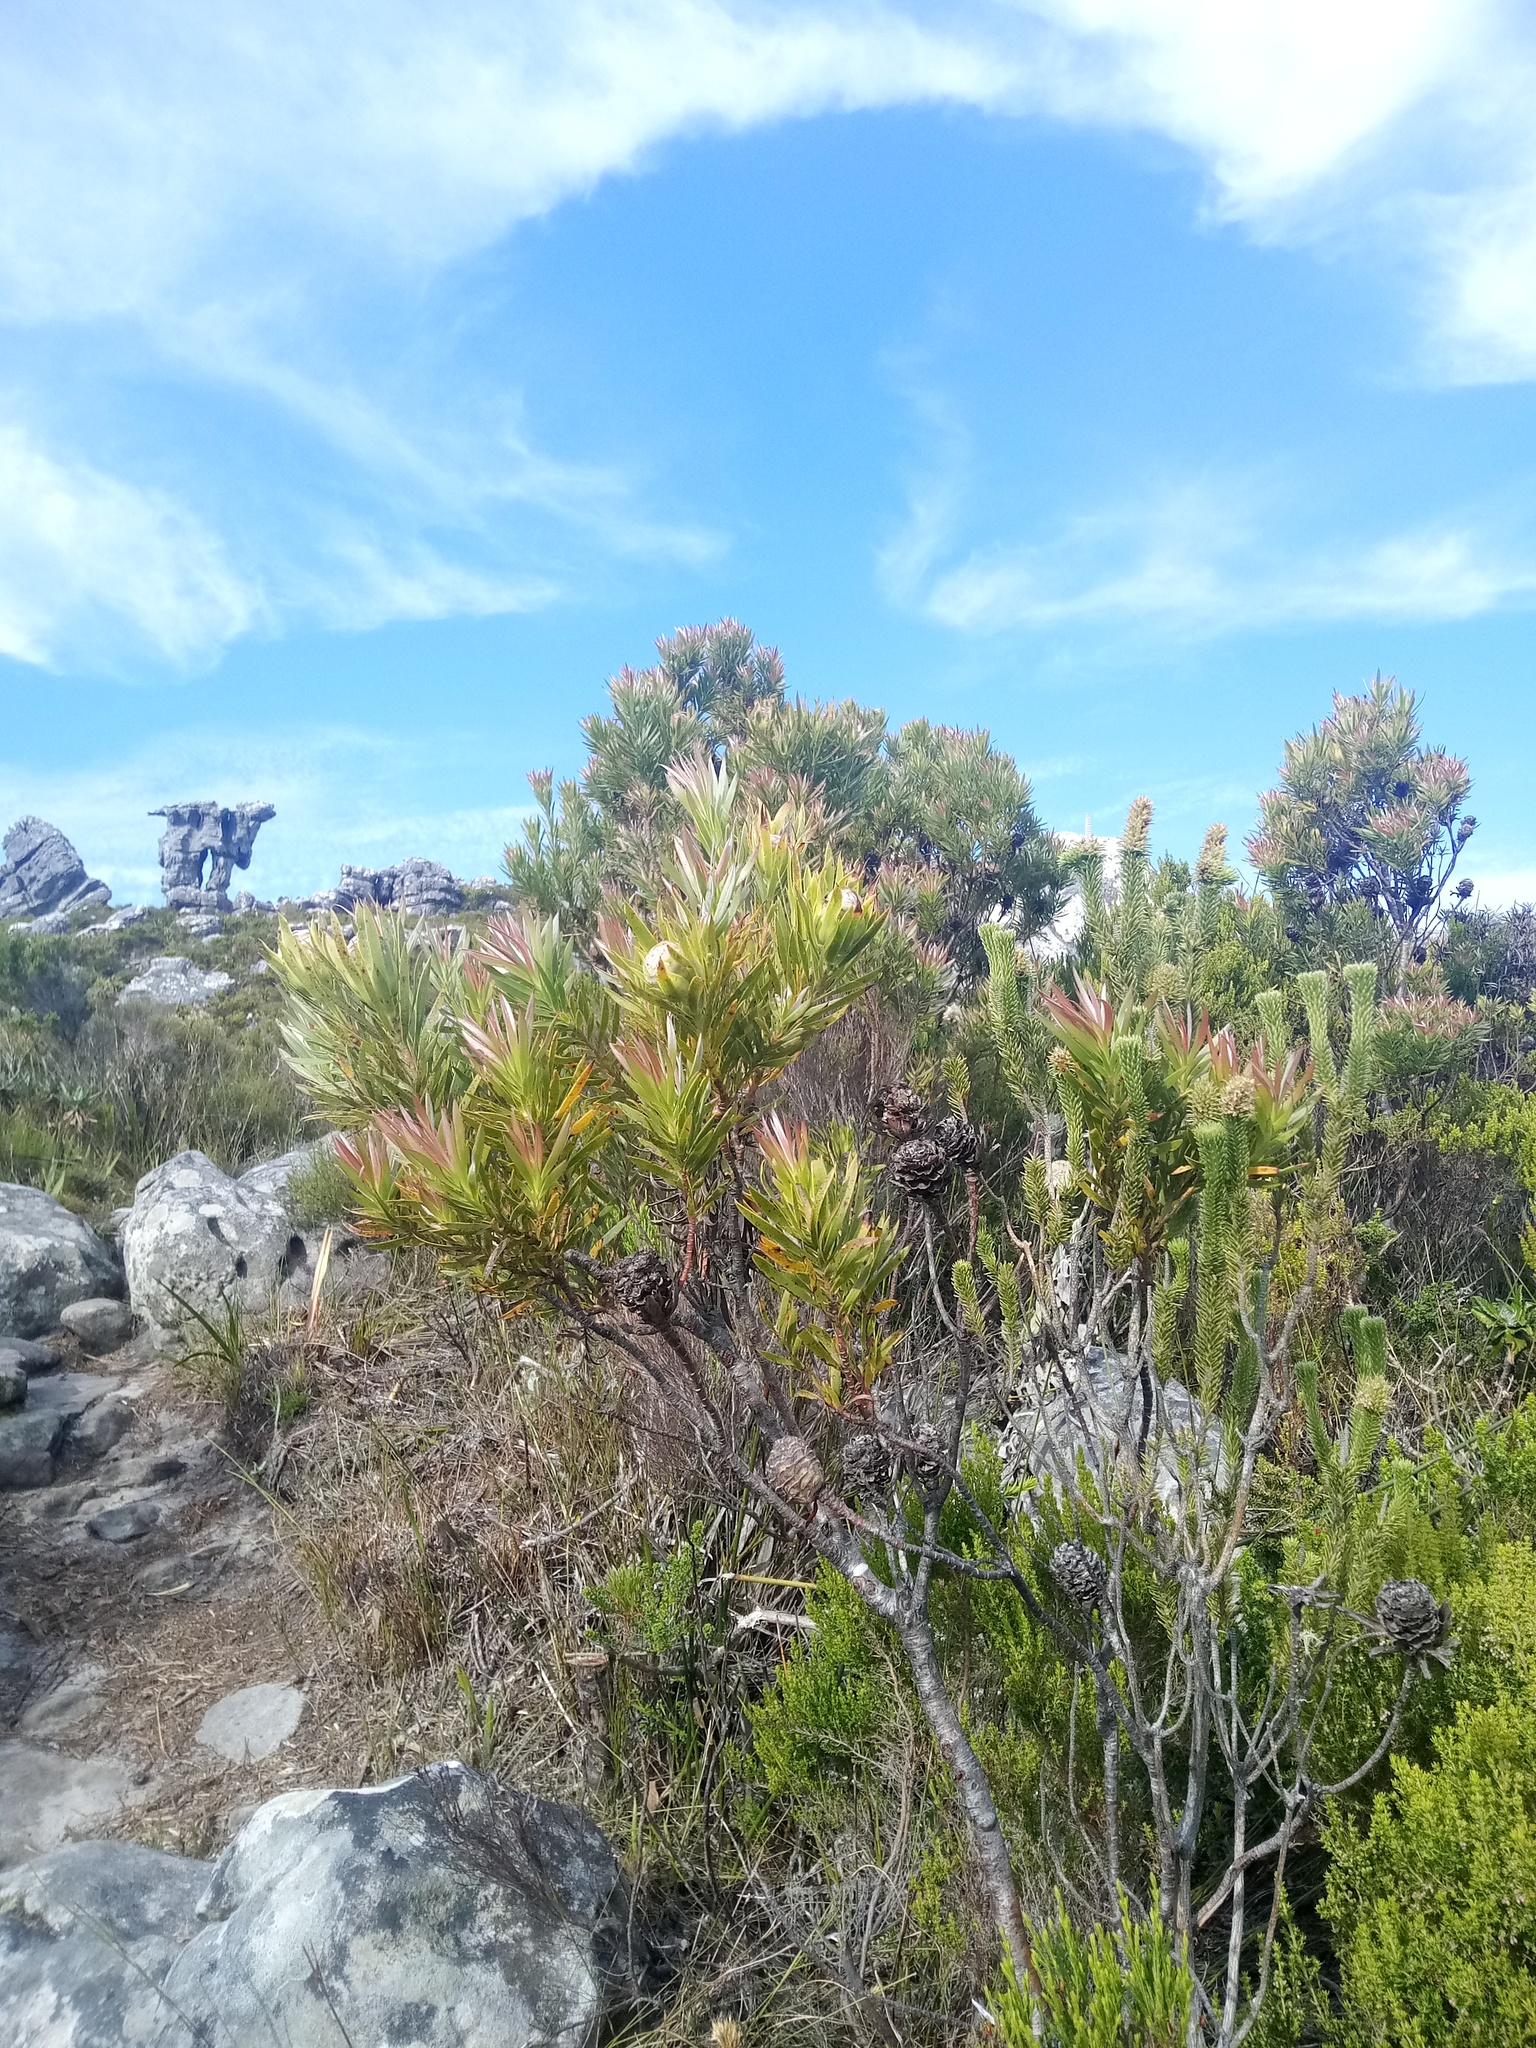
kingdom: Plantae
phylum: Tracheophyta
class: Magnoliopsida
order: Lamiales
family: Stilbaceae
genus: Stilbe
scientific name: Stilbe vestita
